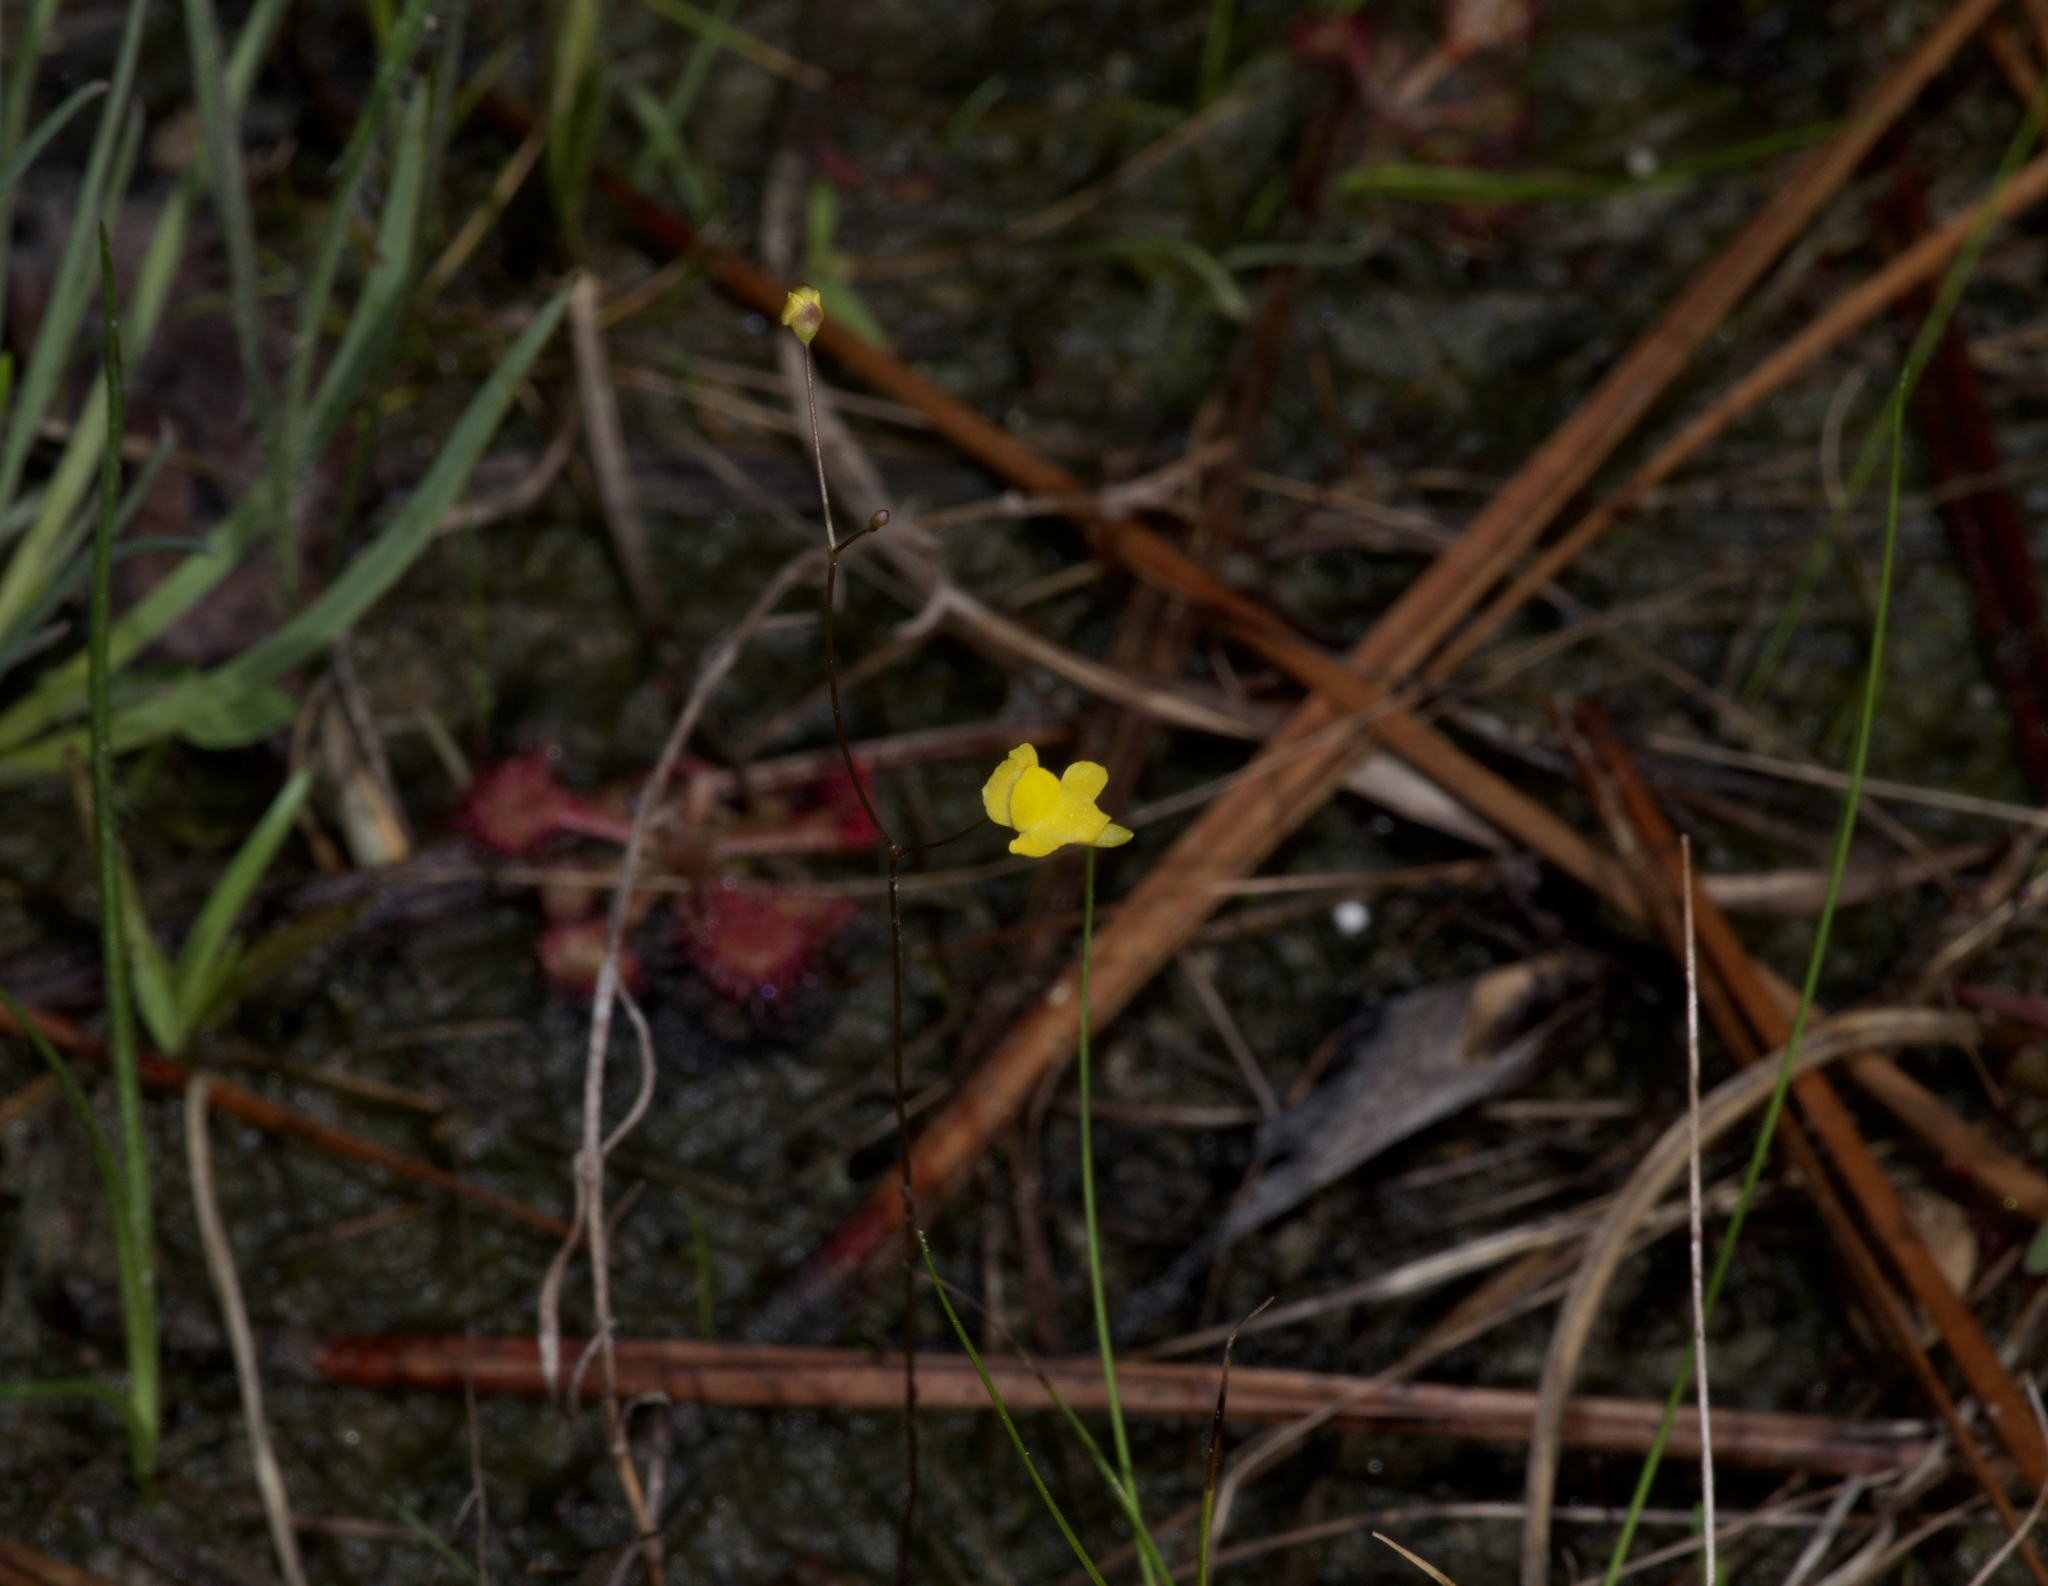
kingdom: Plantae
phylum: Tracheophyta
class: Magnoliopsida
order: Lamiales
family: Lentibulariaceae
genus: Utricularia
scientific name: Utricularia subulata
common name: Tiny bladderwort
